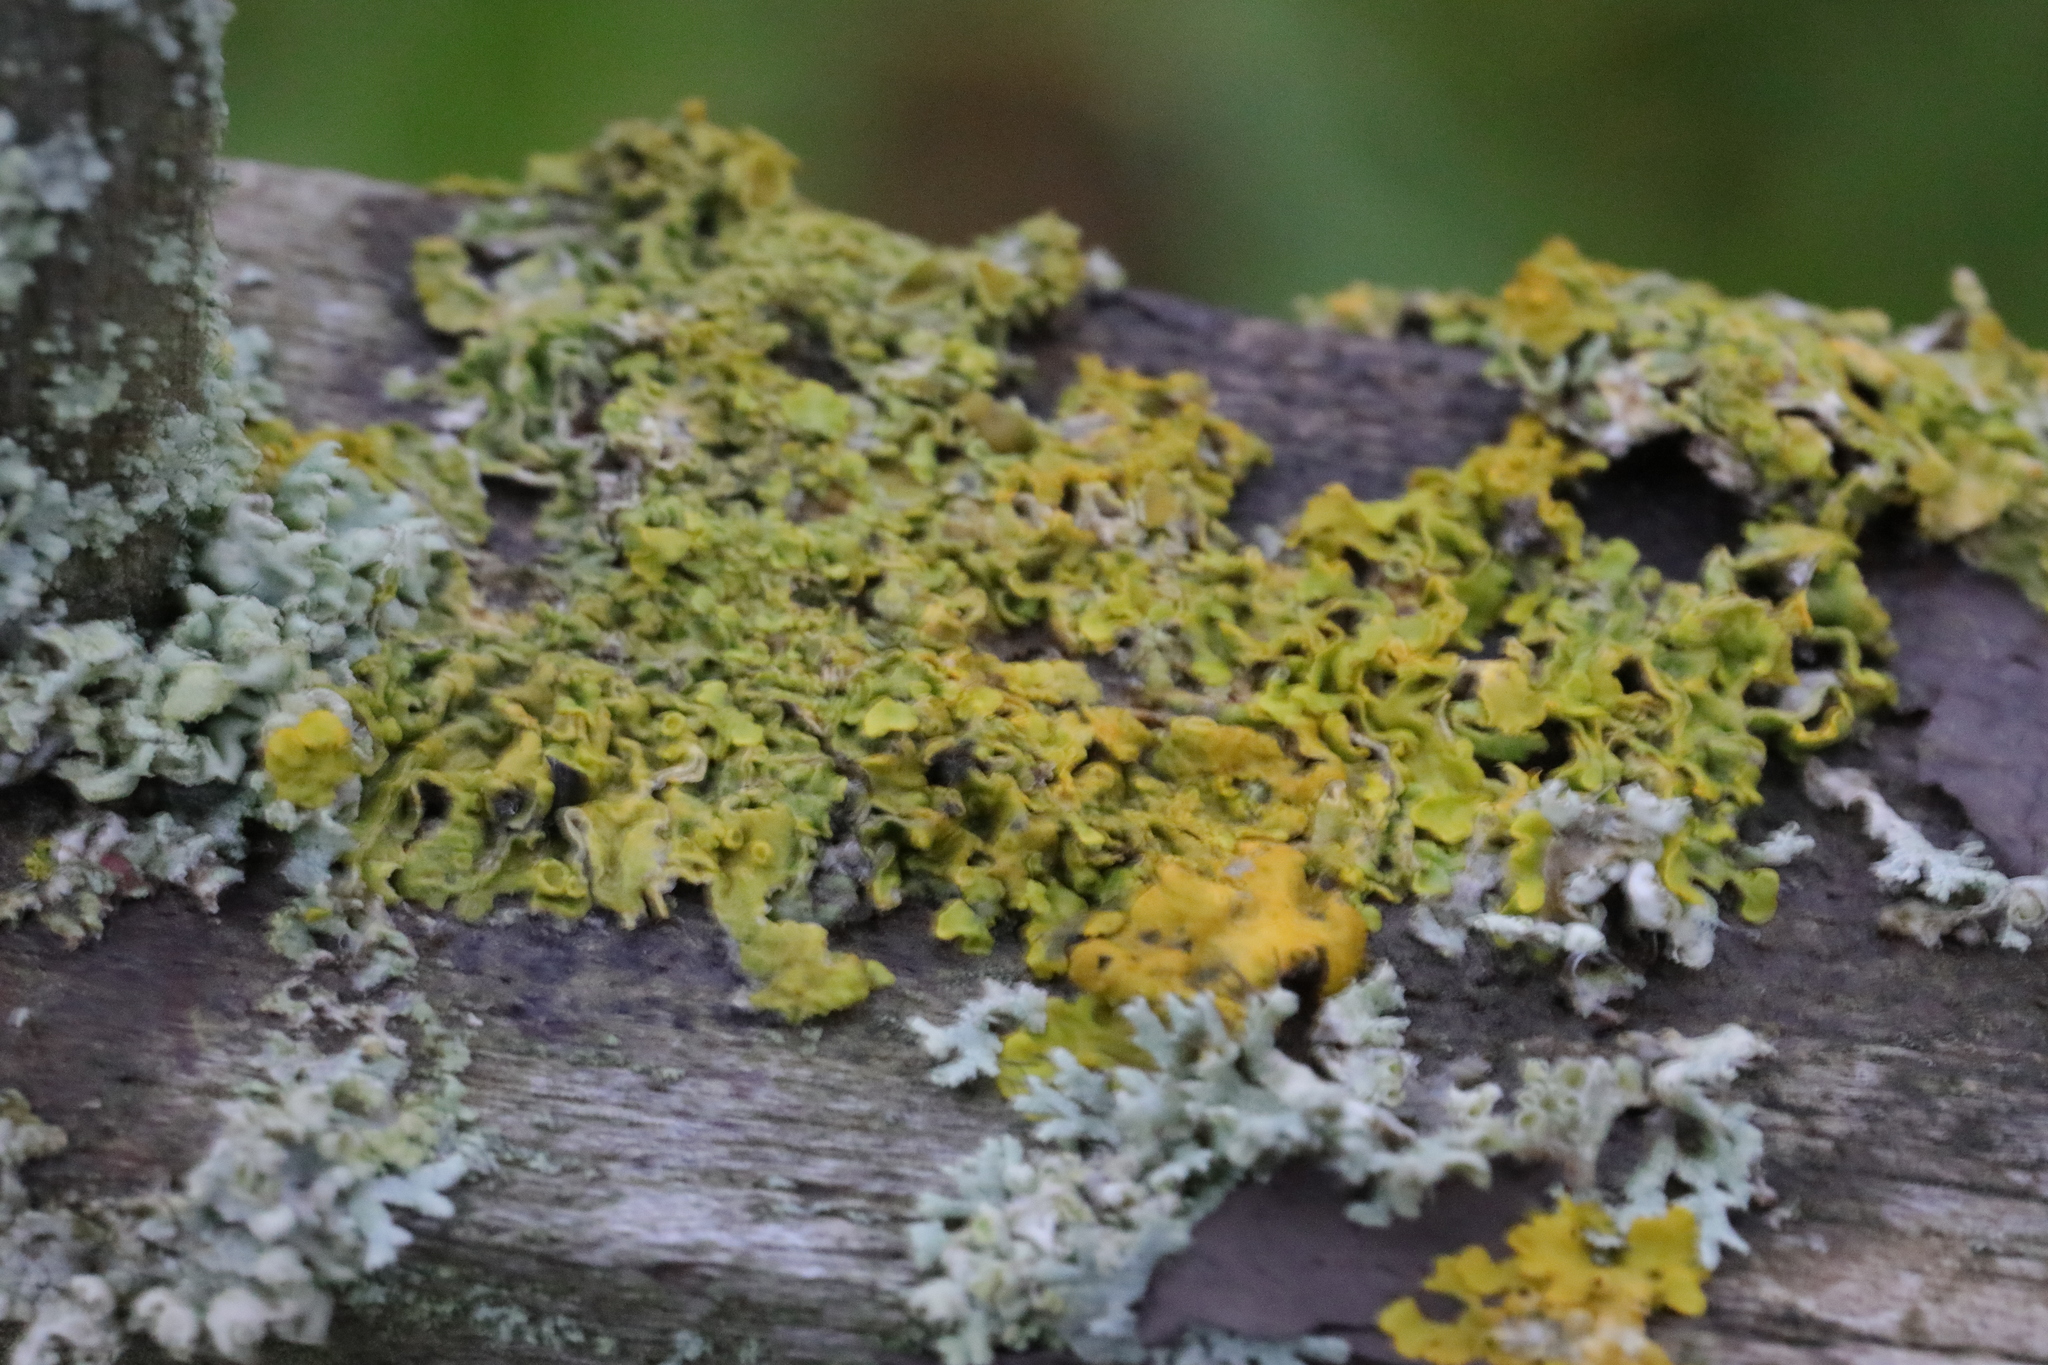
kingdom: Fungi
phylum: Ascomycota
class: Lecanoromycetes
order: Teloschistales
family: Teloschistaceae
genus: Xanthoria
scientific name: Xanthoria parietina
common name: Common orange lichen
